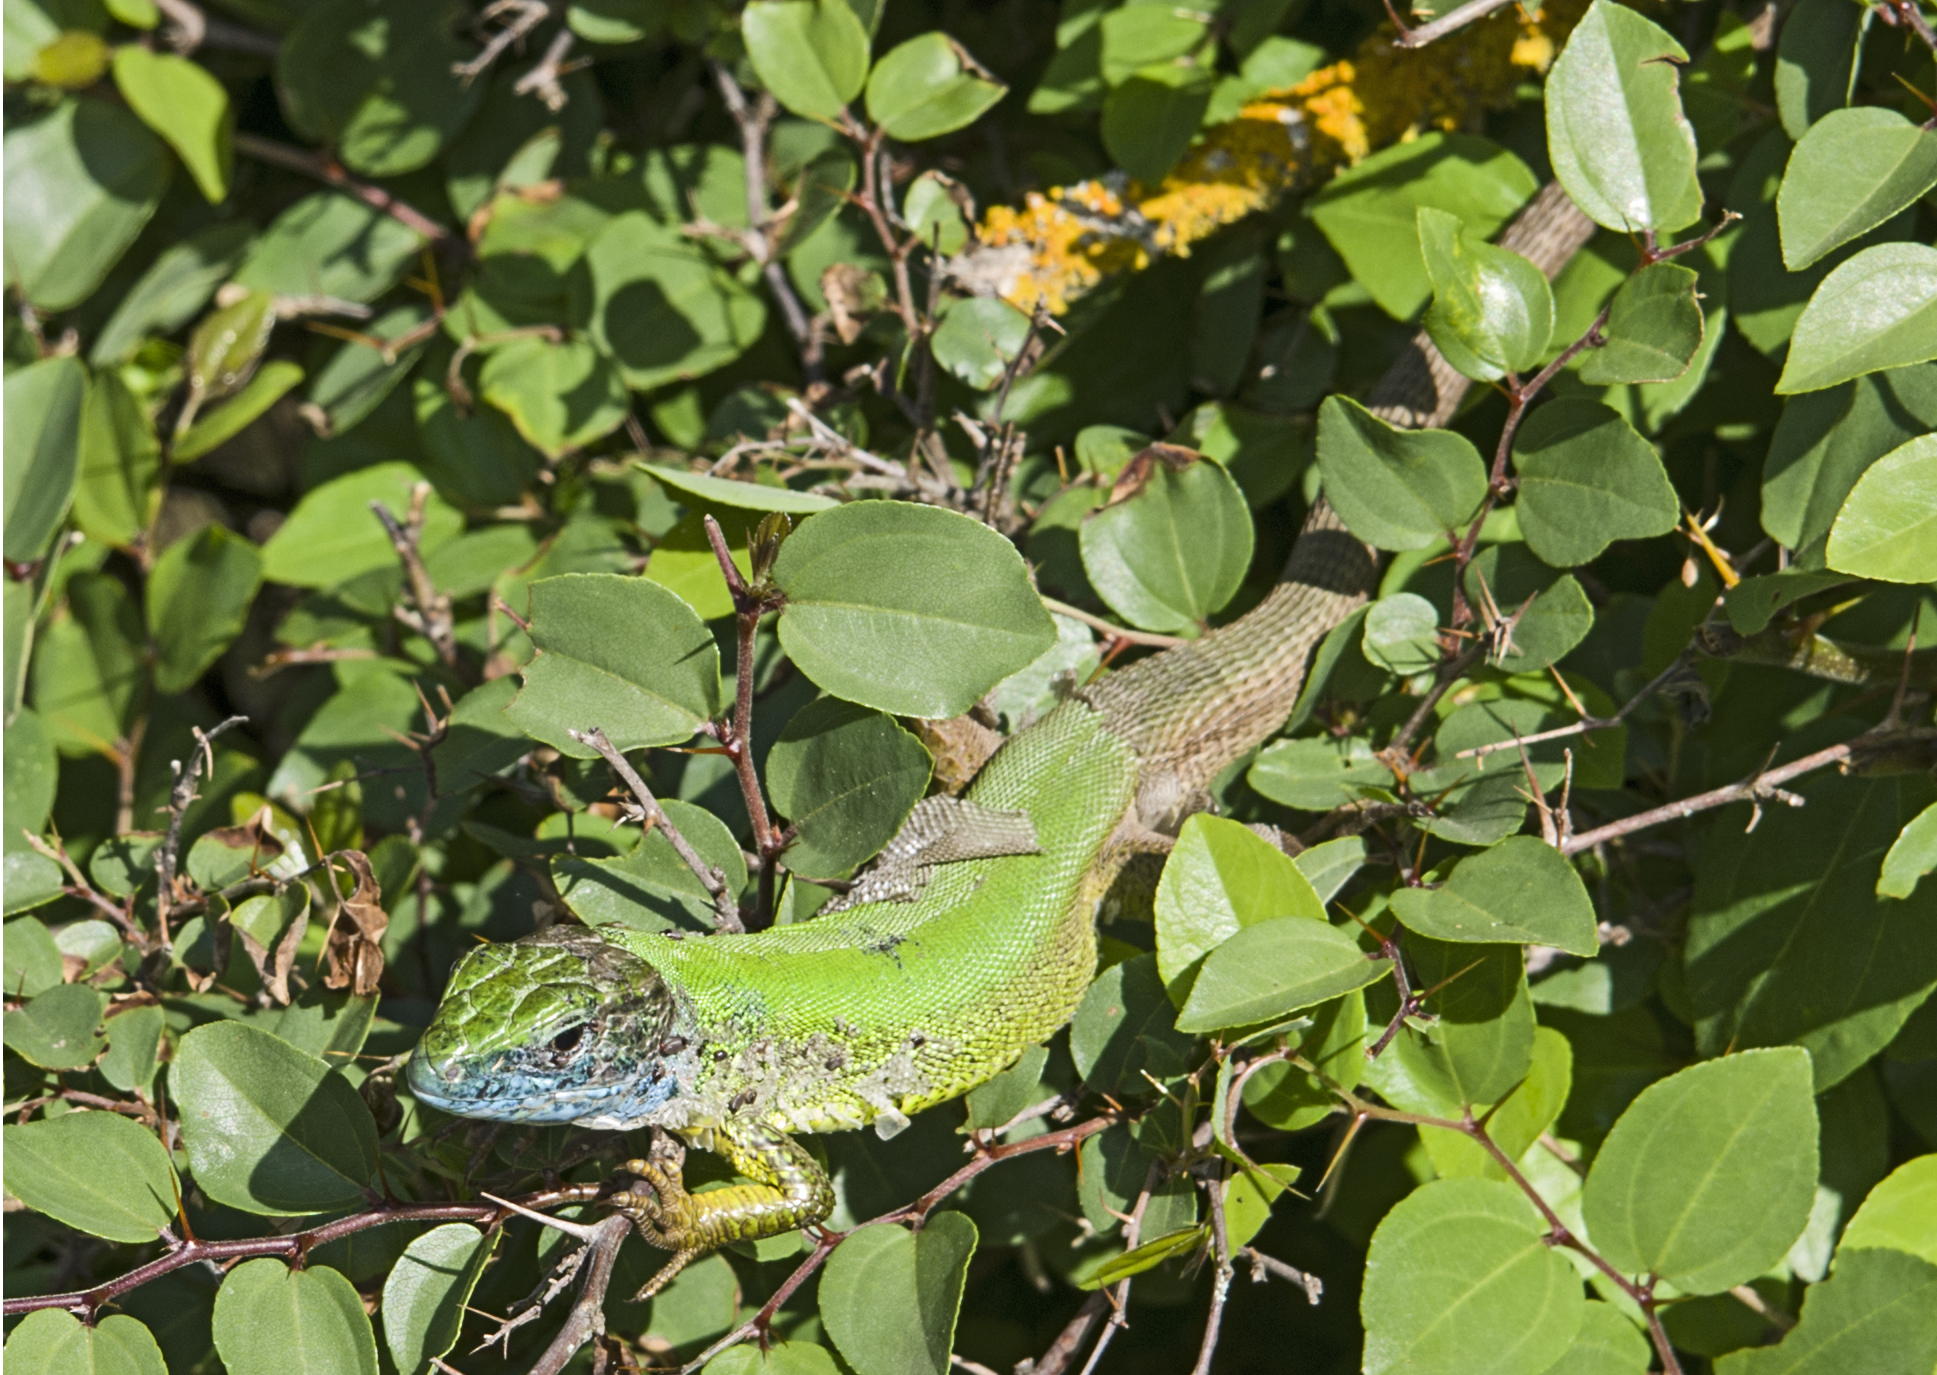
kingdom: Animalia
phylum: Chordata
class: Squamata
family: Lacertidae
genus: Lacerta
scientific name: Lacerta viridis
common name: European green lizard
